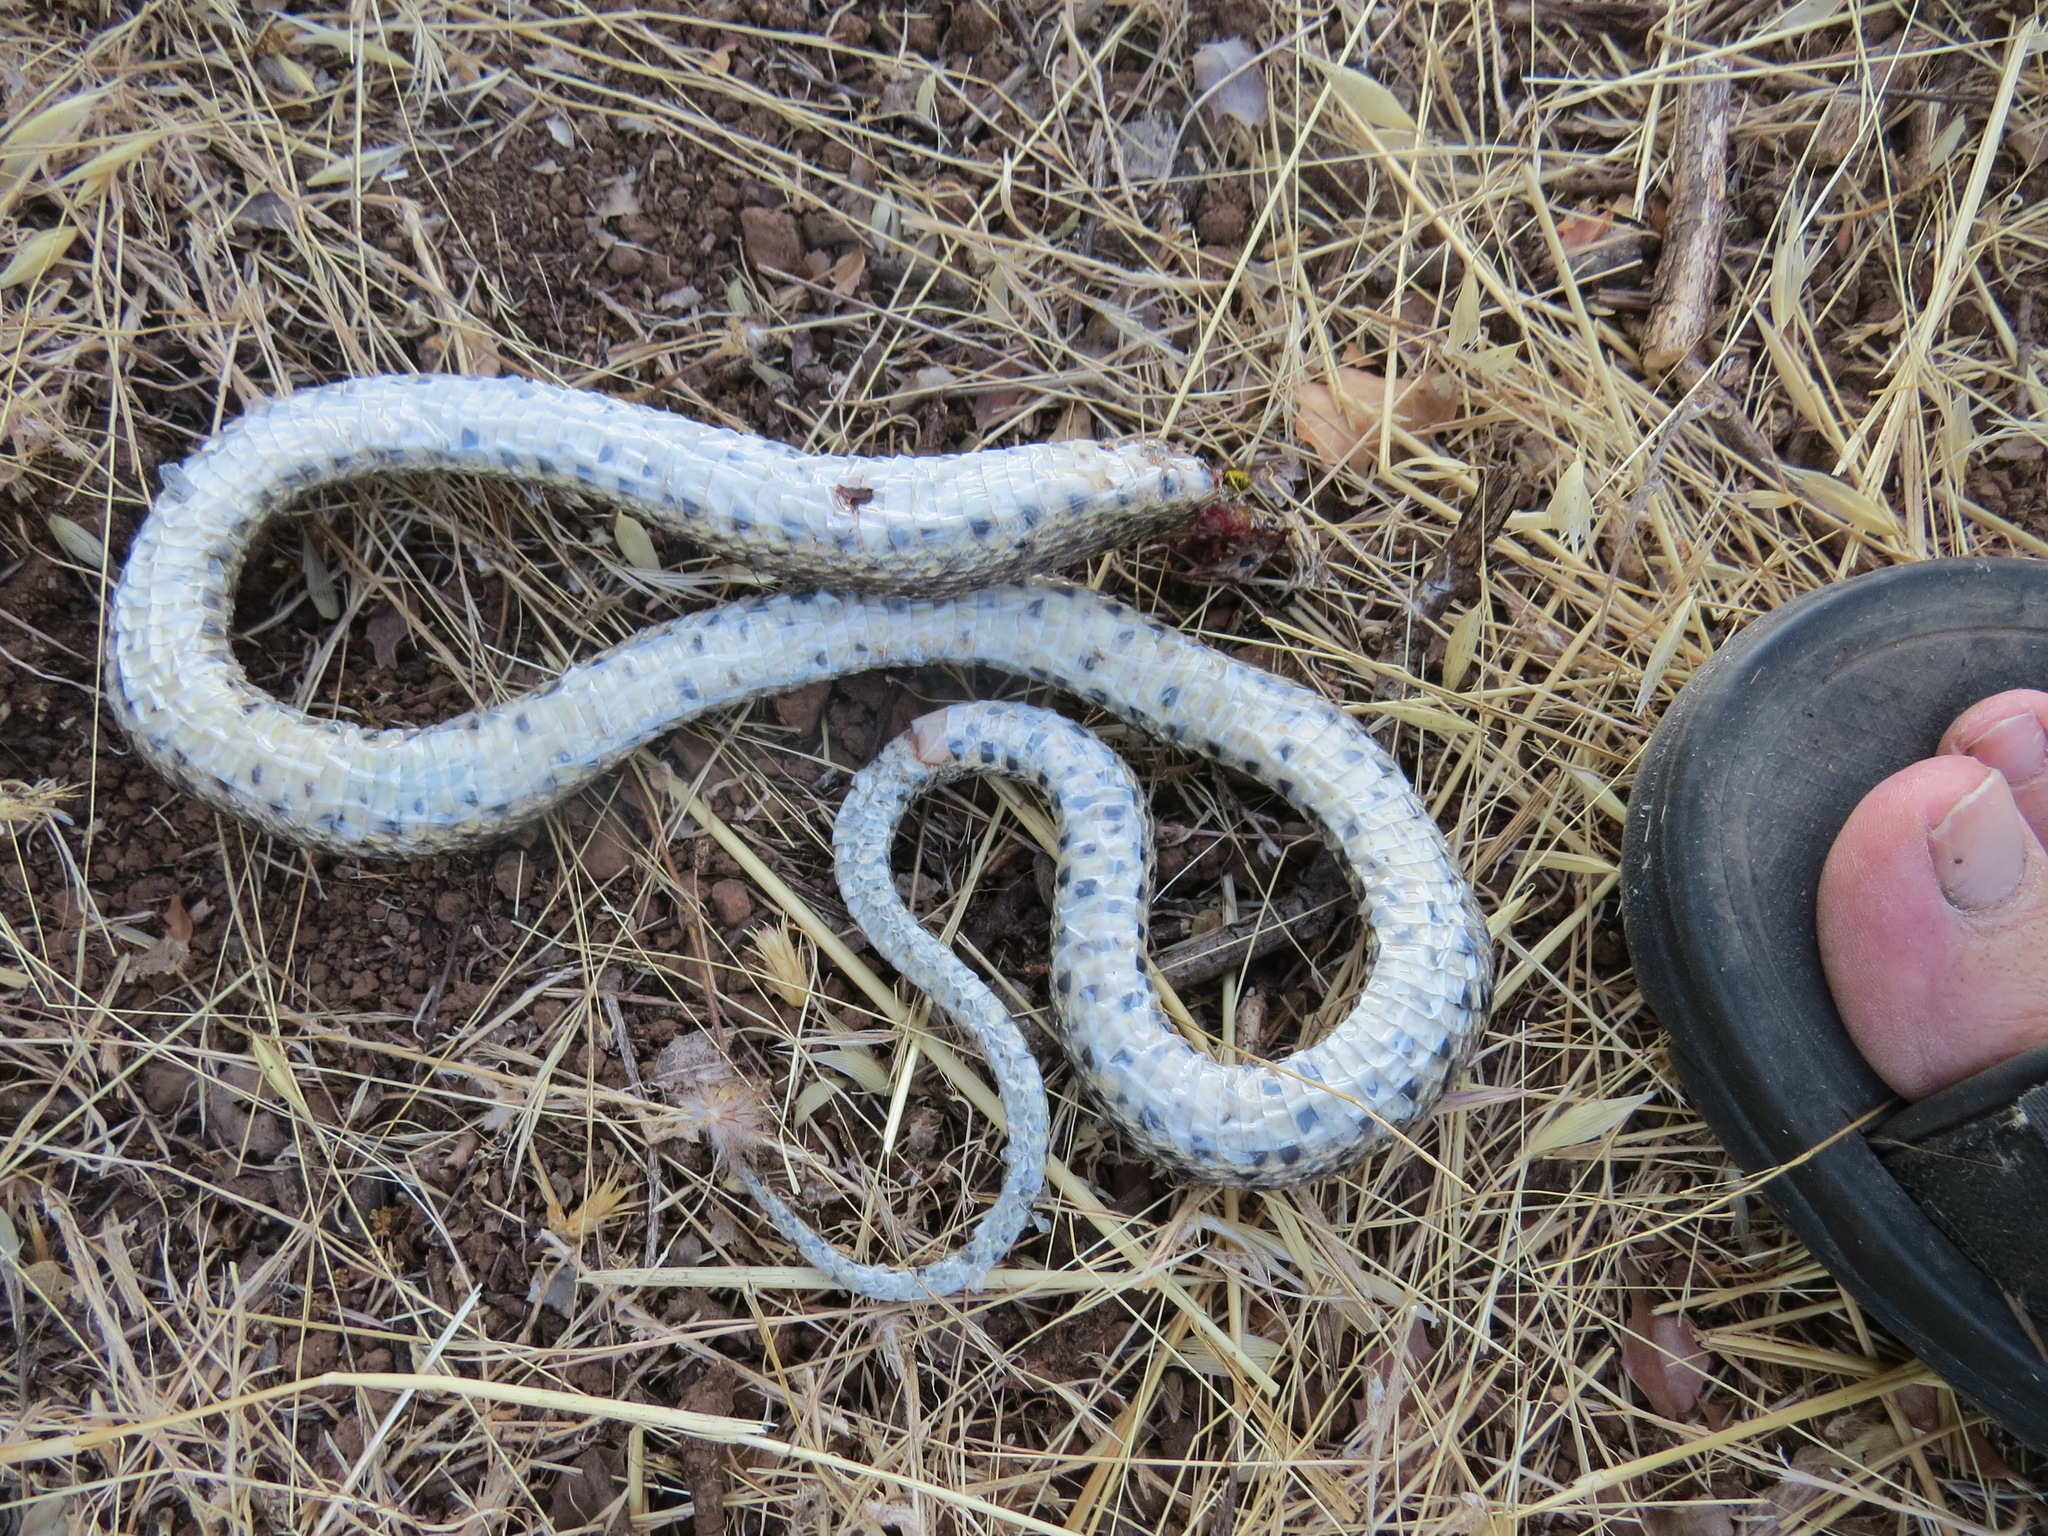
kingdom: Animalia
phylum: Chordata
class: Squamata
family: Colubridae
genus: Pituophis
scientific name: Pituophis catenifer
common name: Gopher snake
